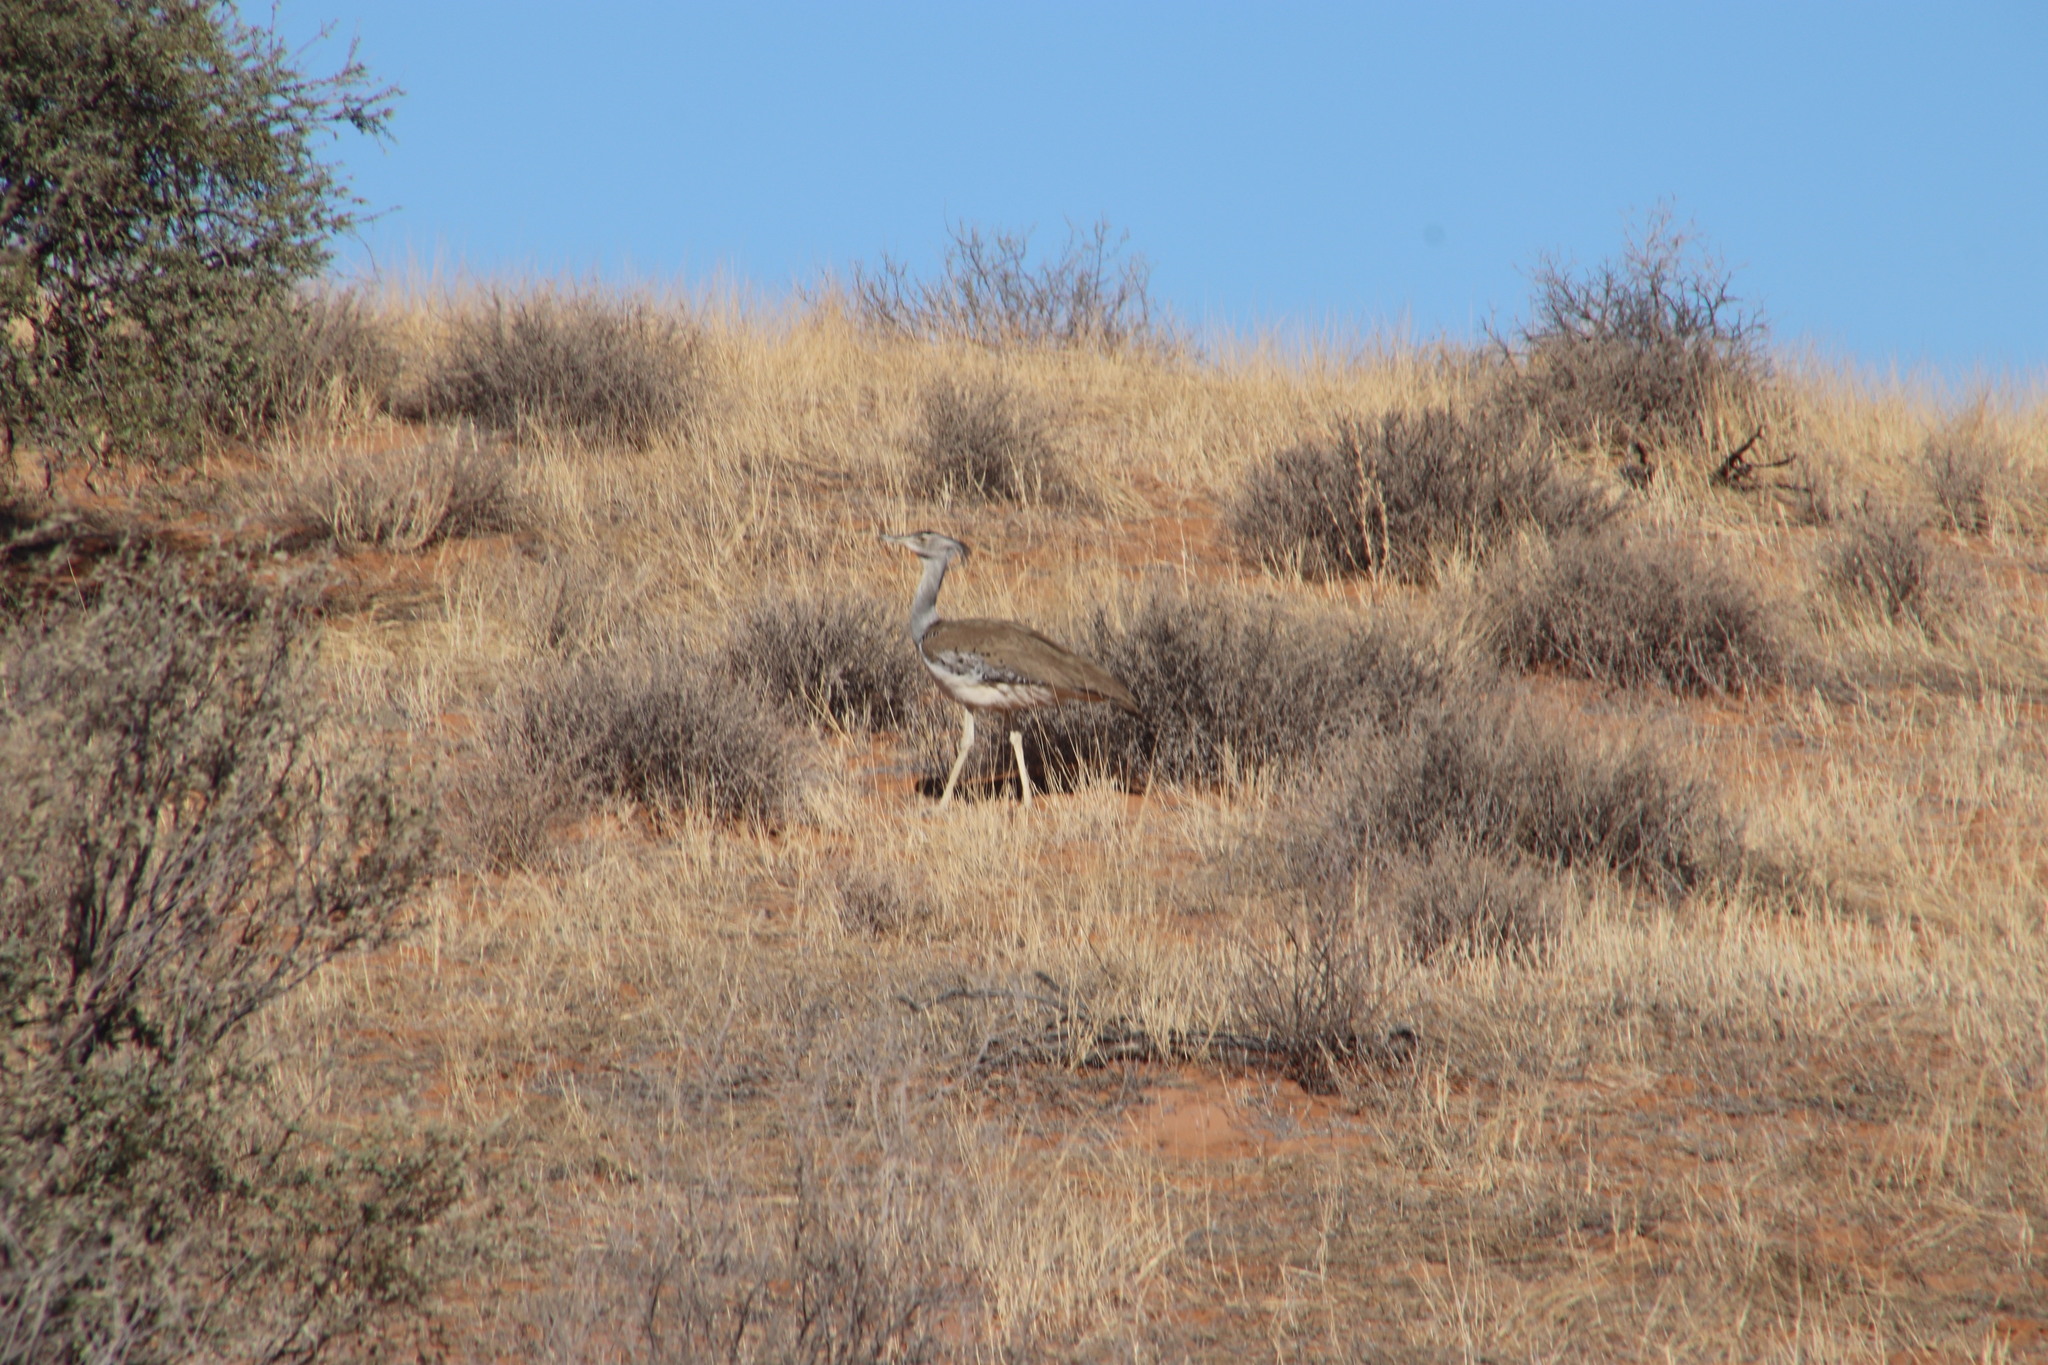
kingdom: Animalia
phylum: Chordata
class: Aves
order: Otidiformes
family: Otididae
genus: Ardeotis
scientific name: Ardeotis kori
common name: Kori bustard
